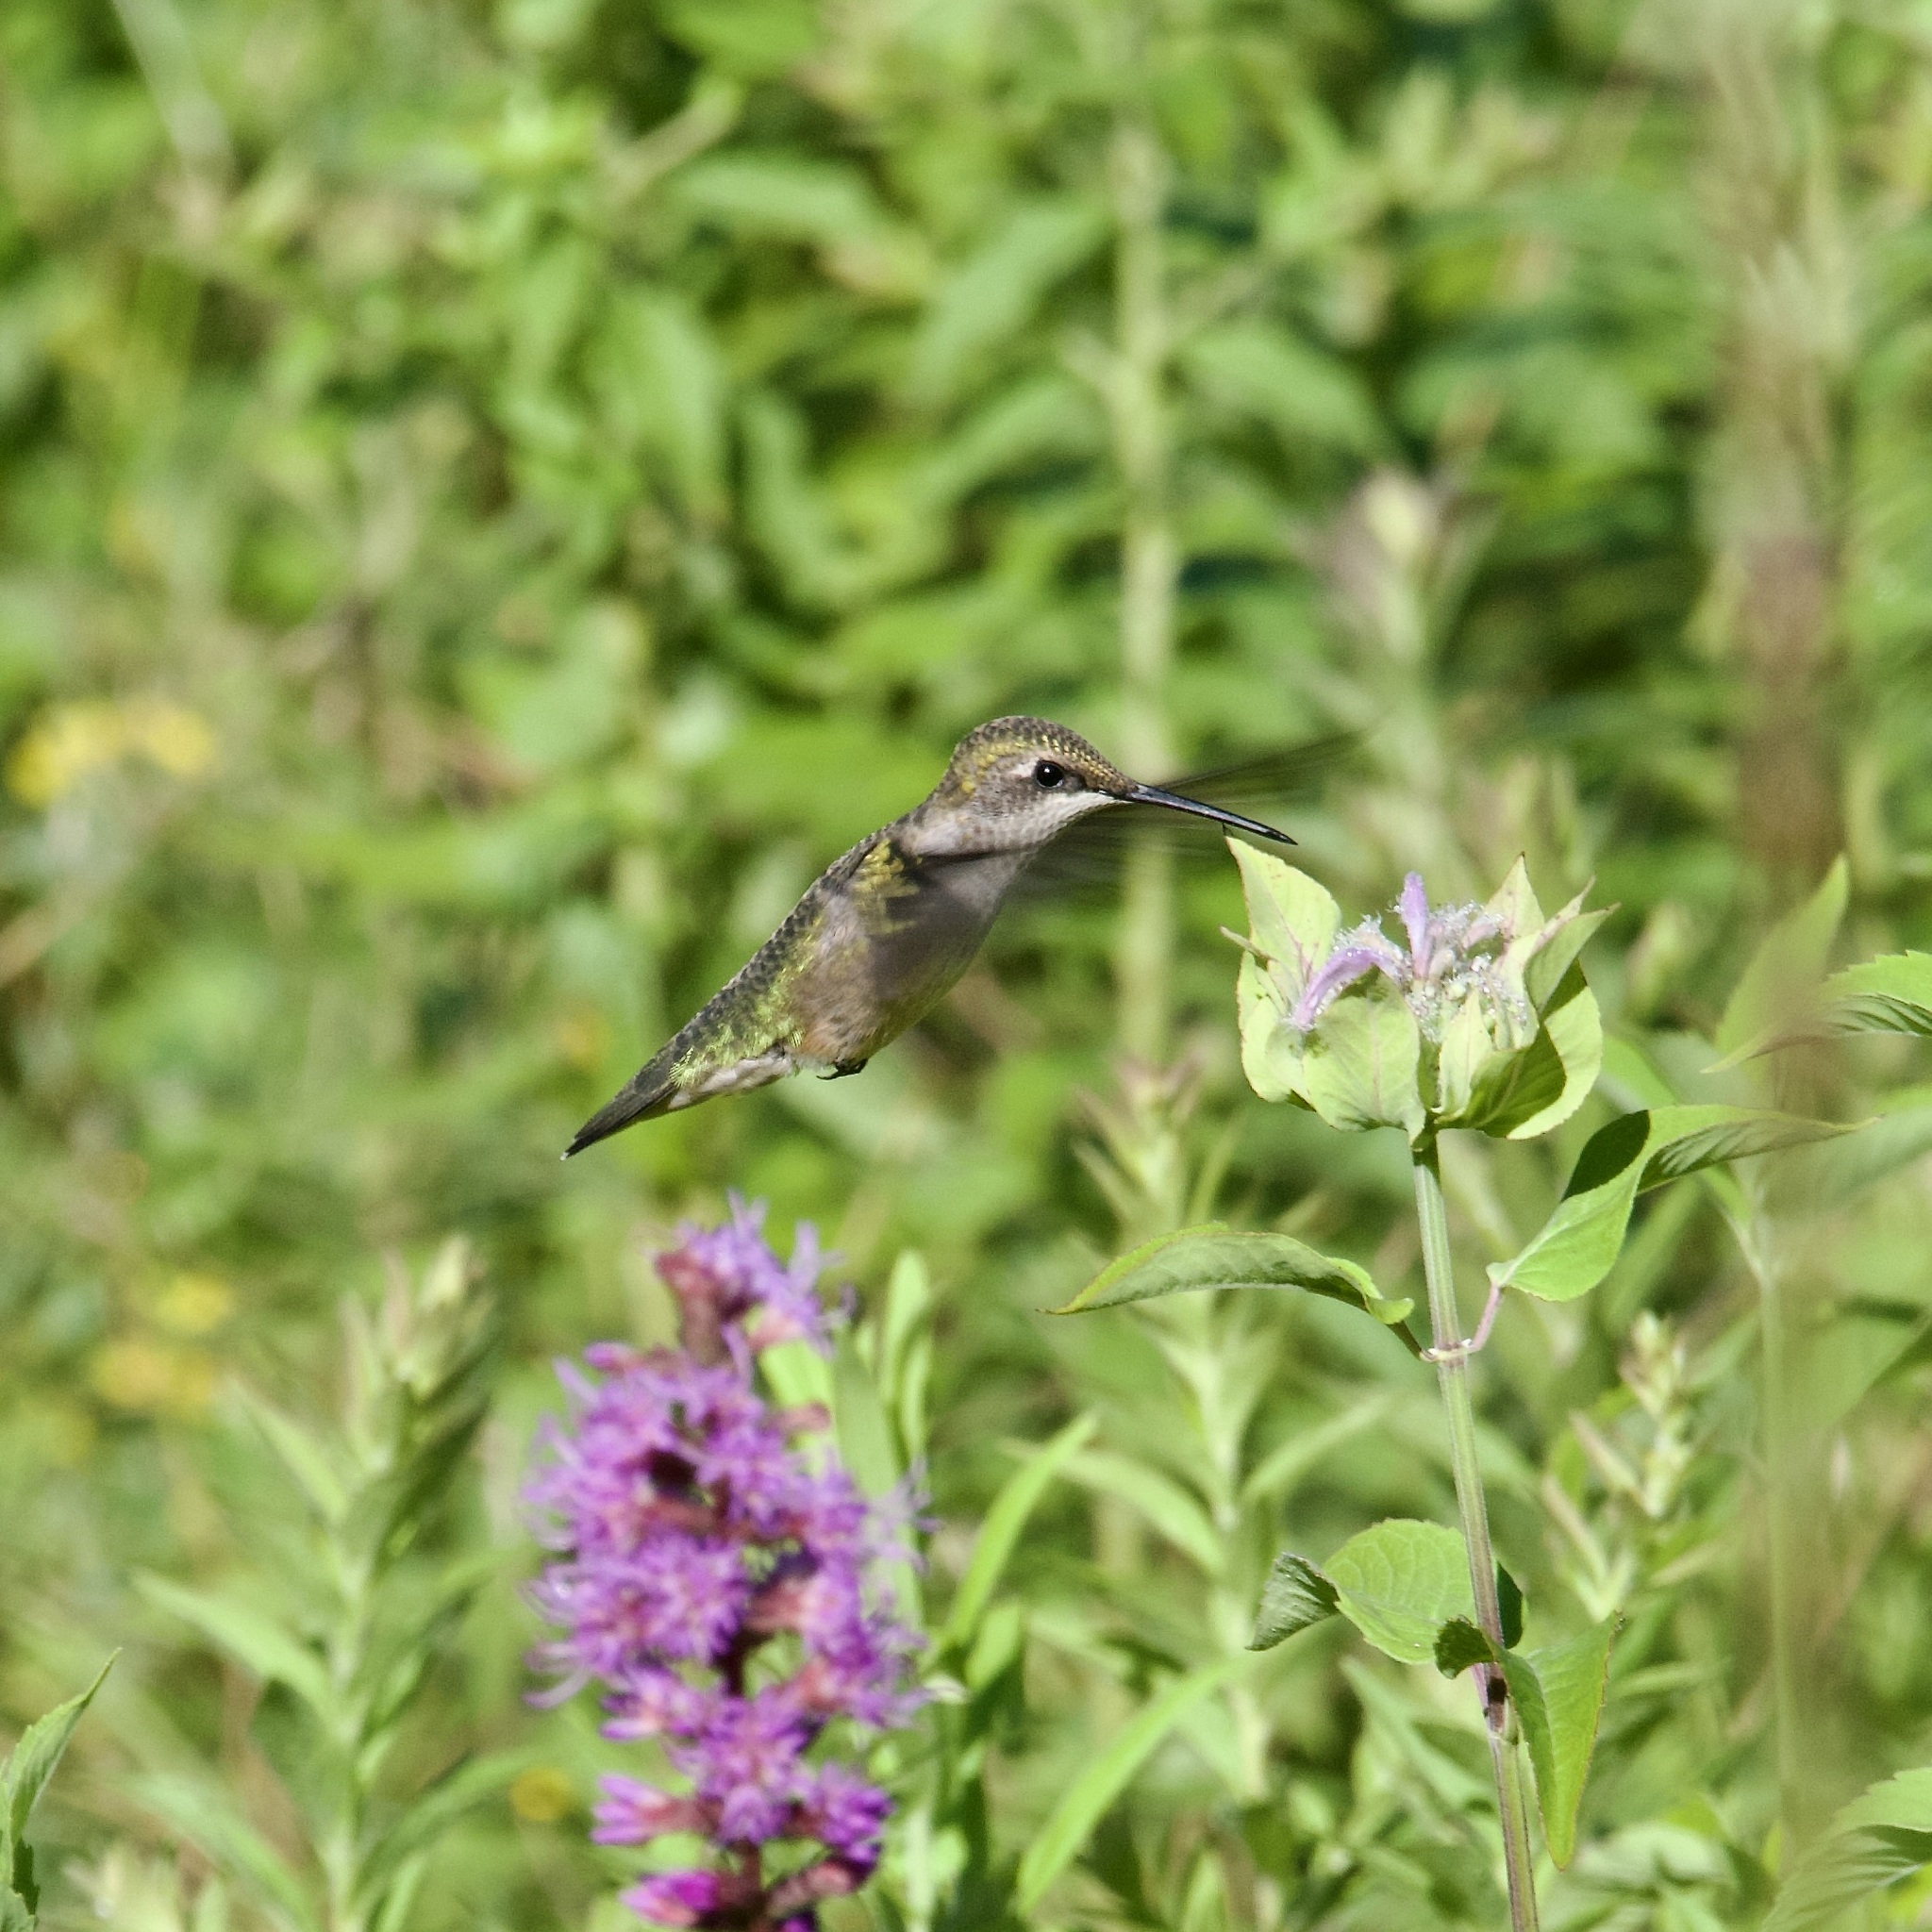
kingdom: Animalia
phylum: Chordata
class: Aves
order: Apodiformes
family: Trochilidae
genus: Archilochus
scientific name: Archilochus colubris
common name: Ruby-throated hummingbird
